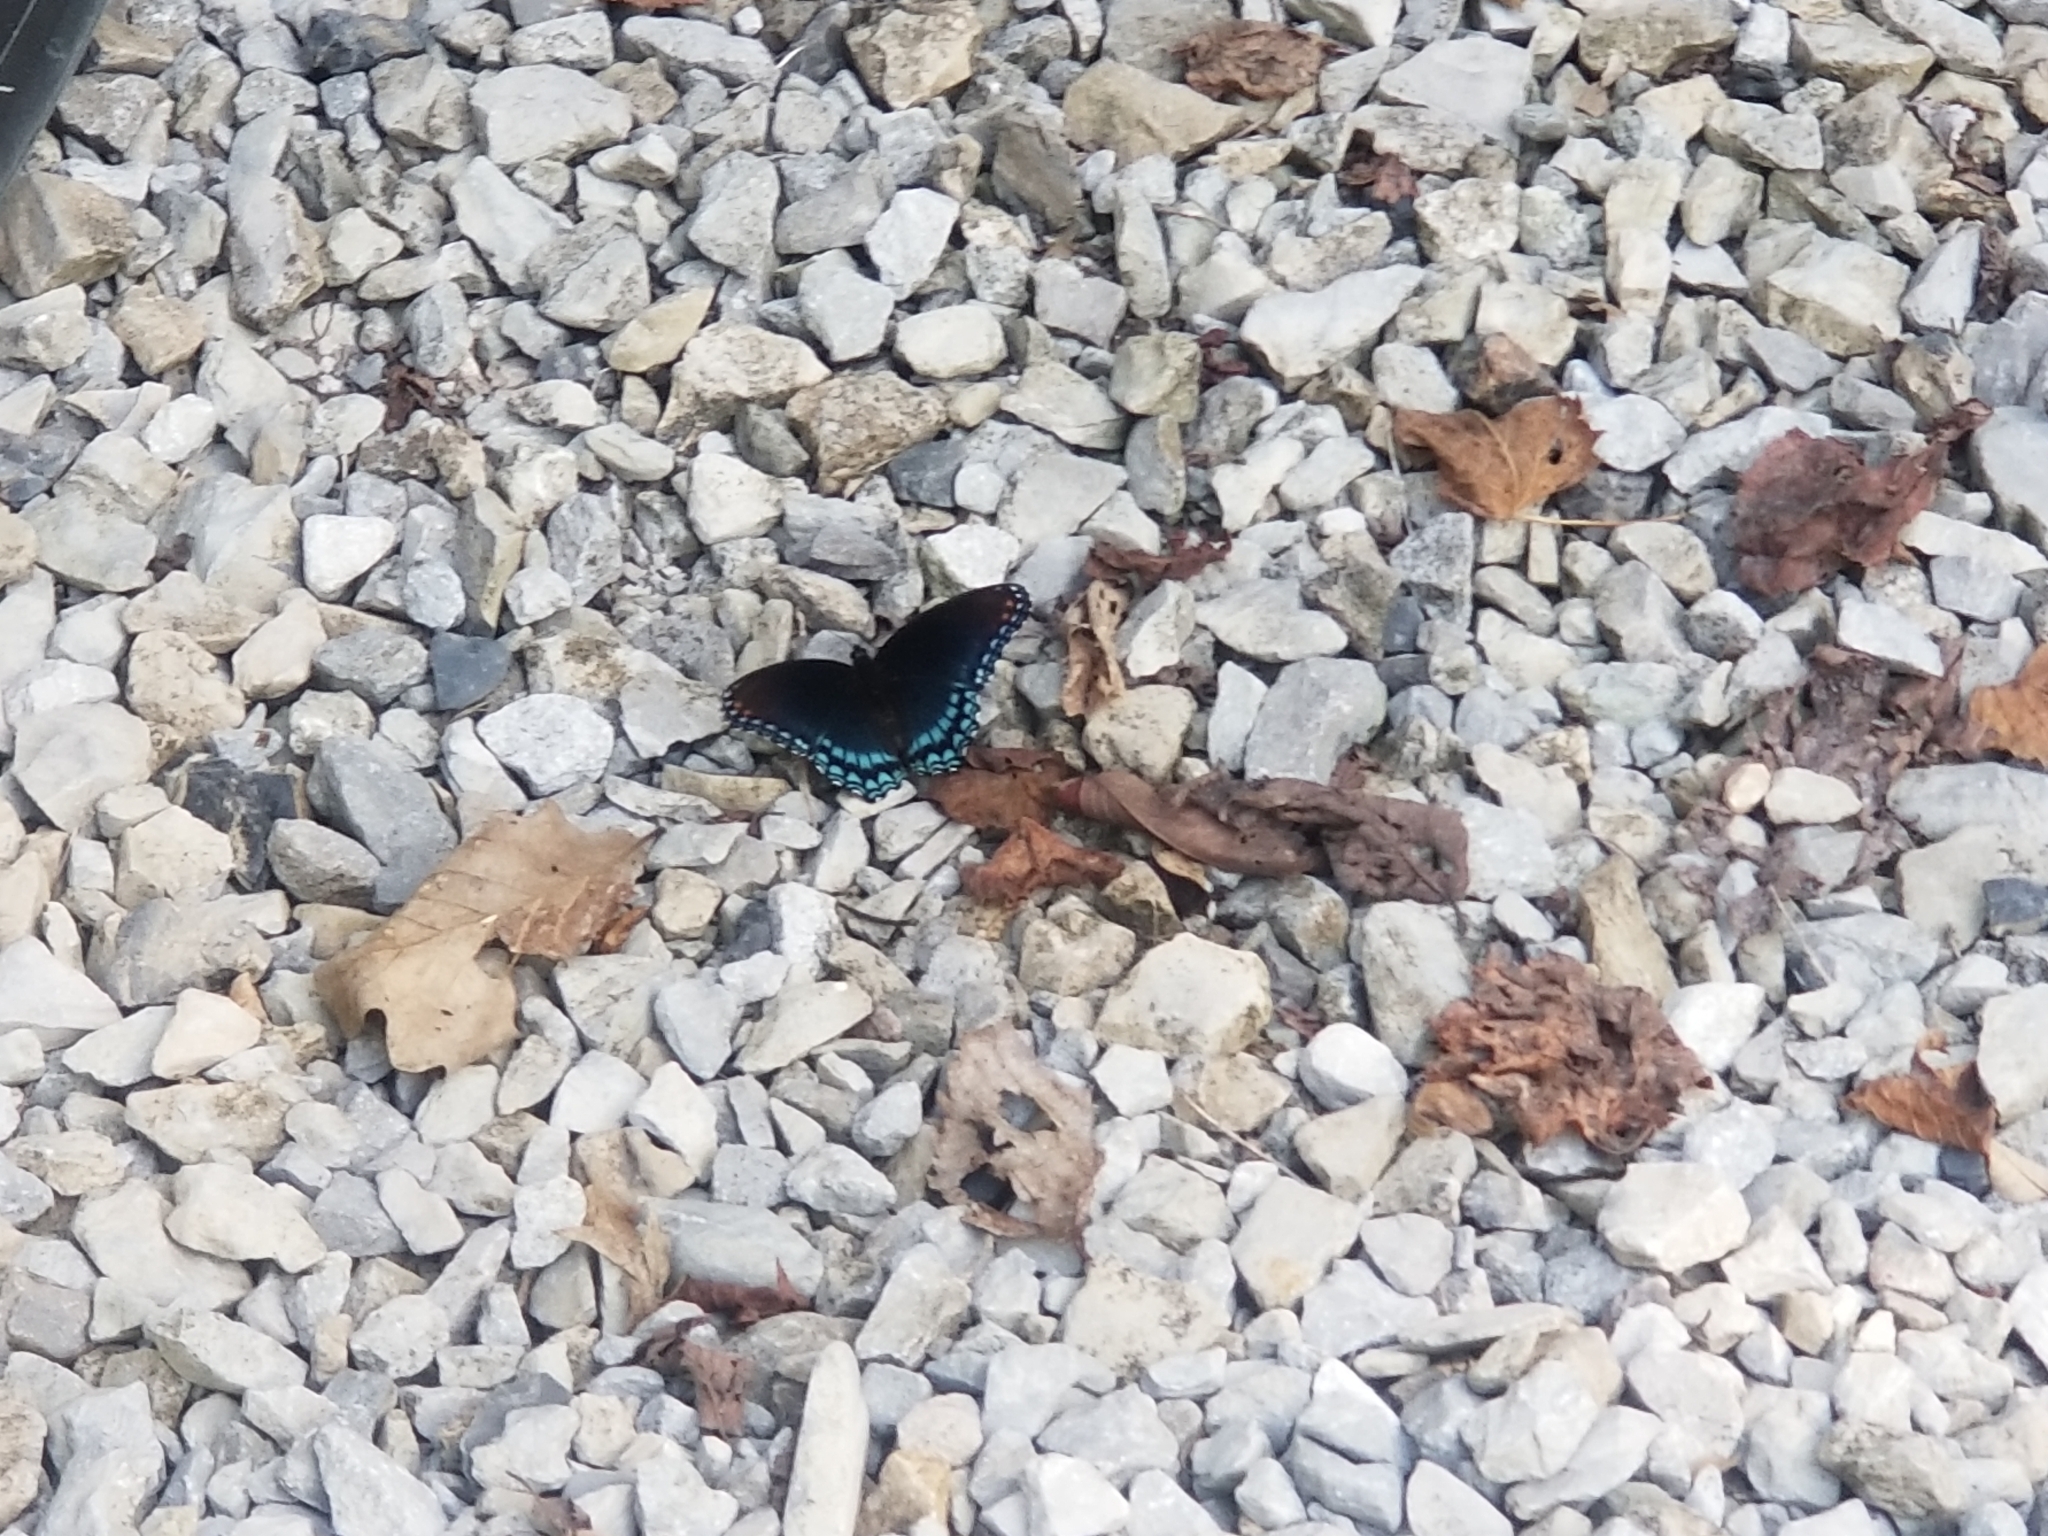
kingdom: Animalia
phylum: Arthropoda
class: Insecta
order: Lepidoptera
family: Nymphalidae
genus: Limenitis
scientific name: Limenitis arthemis
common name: Red-spotted admiral
